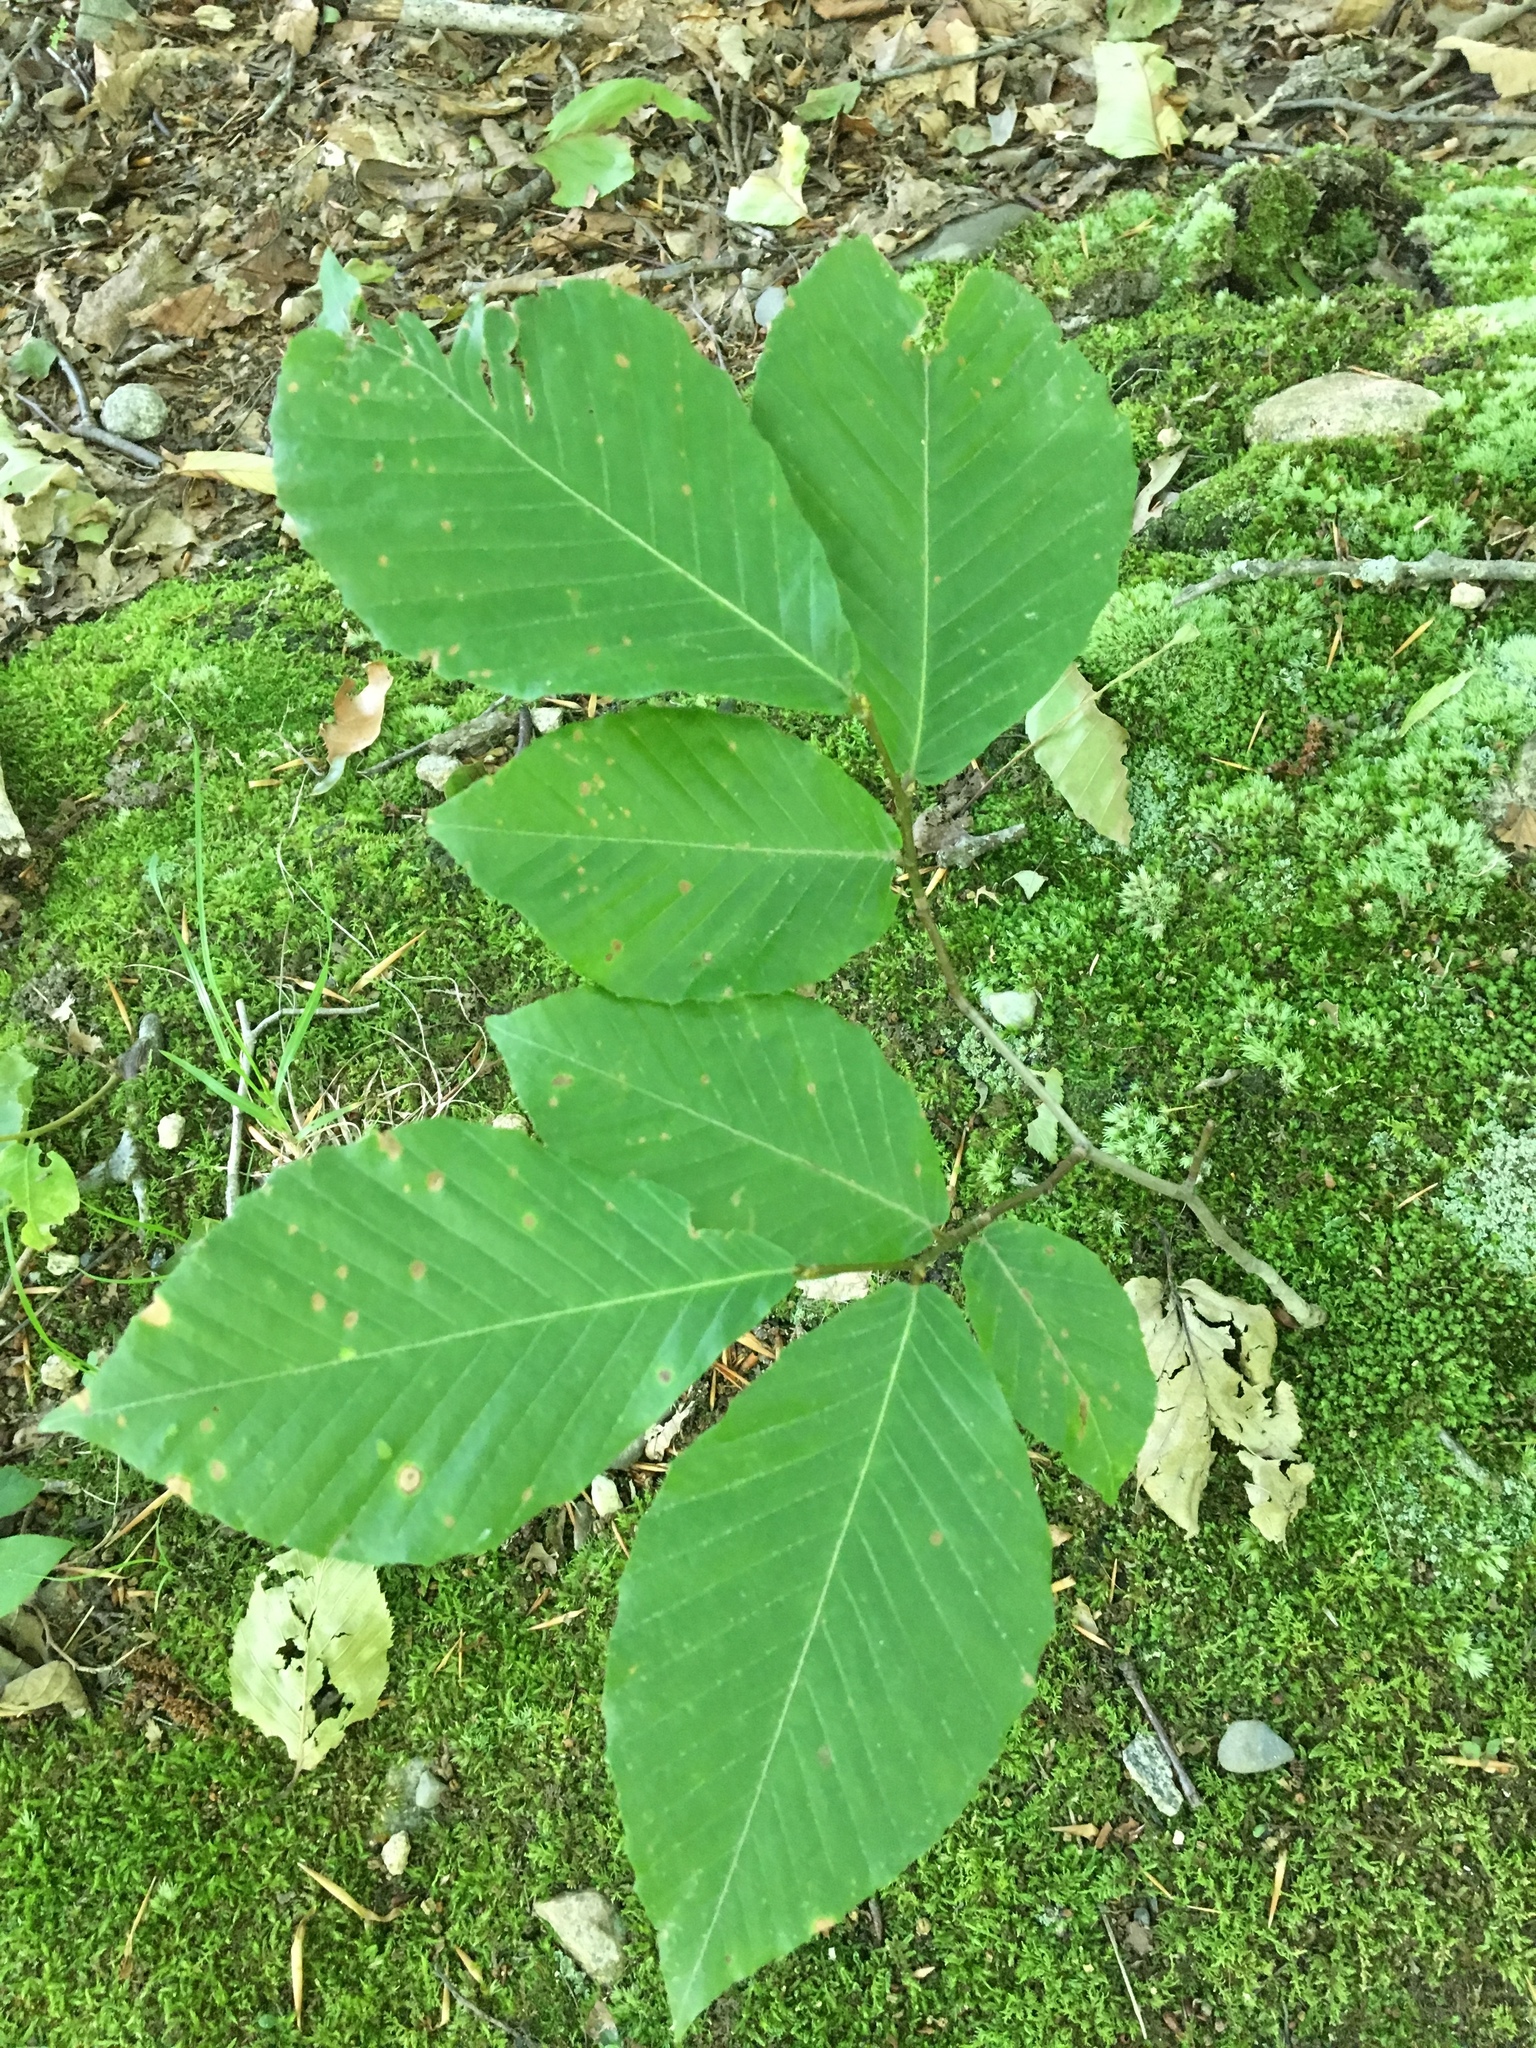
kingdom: Plantae
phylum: Tracheophyta
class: Magnoliopsida
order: Fagales
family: Fagaceae
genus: Fagus
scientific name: Fagus grandifolia
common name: American beech
